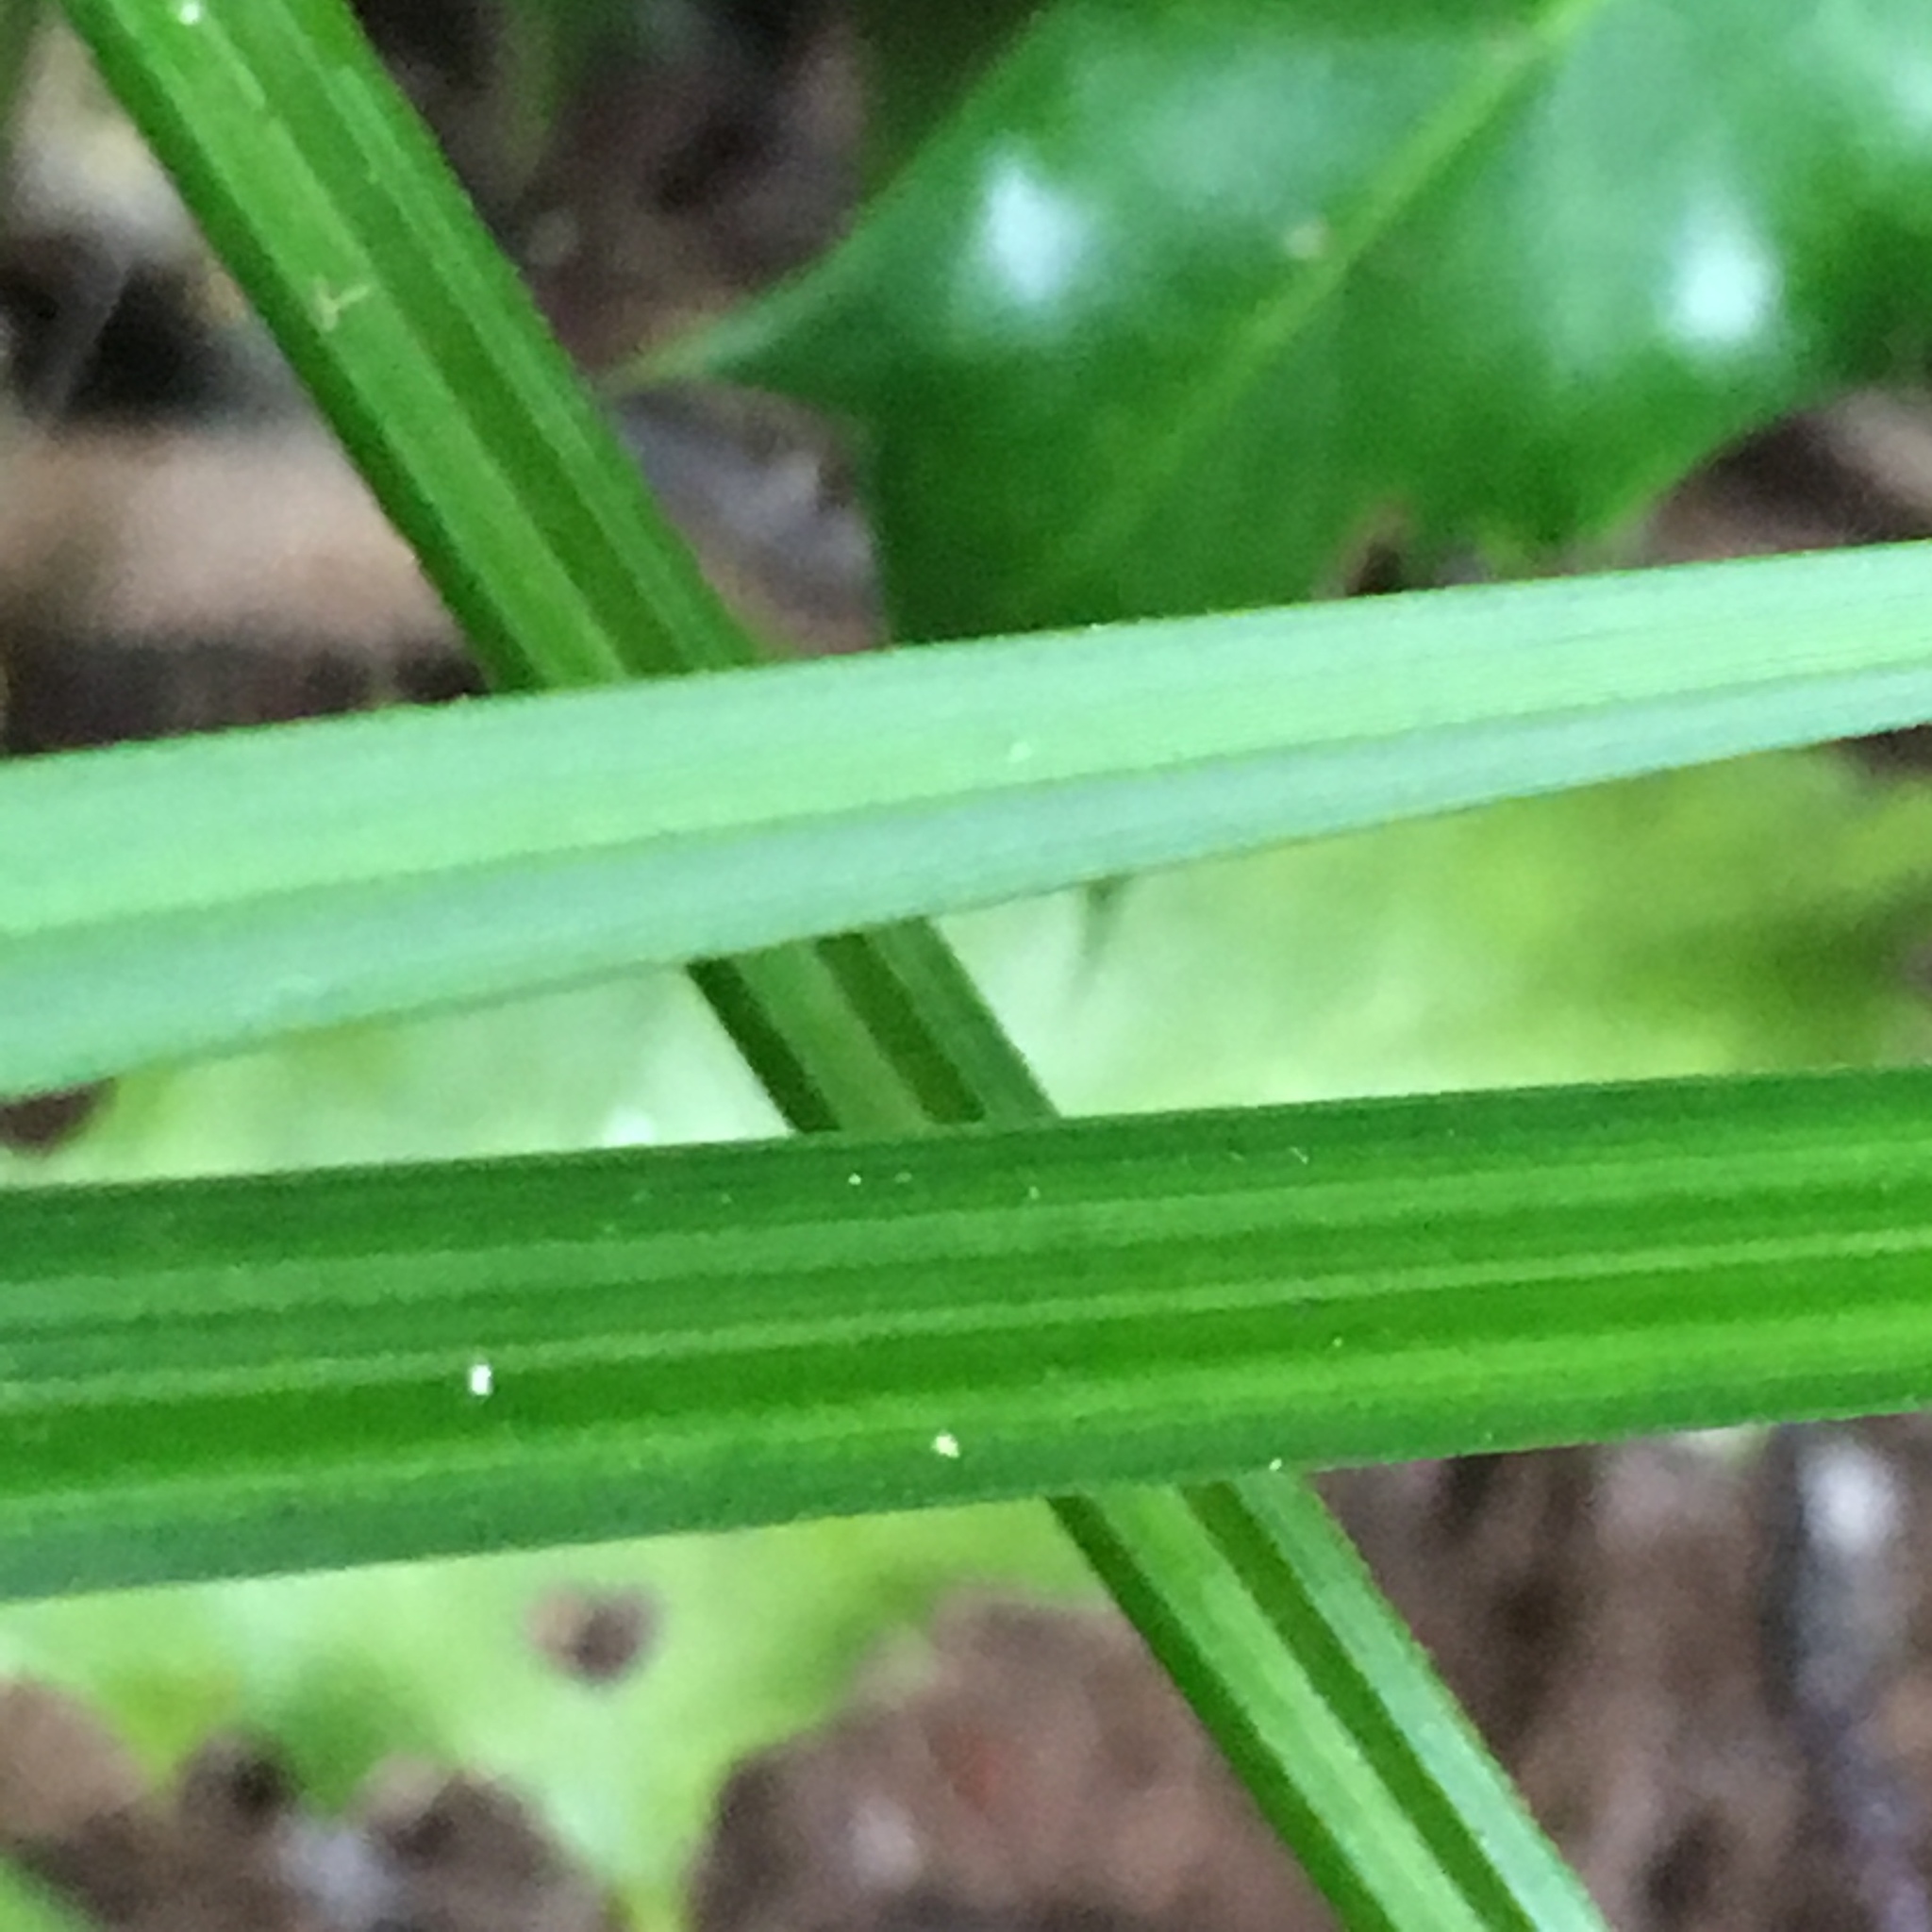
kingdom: Plantae
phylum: Tracheophyta
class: Liliopsida
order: Poales
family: Cyperaceae
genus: Carex
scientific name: Carex obnupta
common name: Slough sedge
